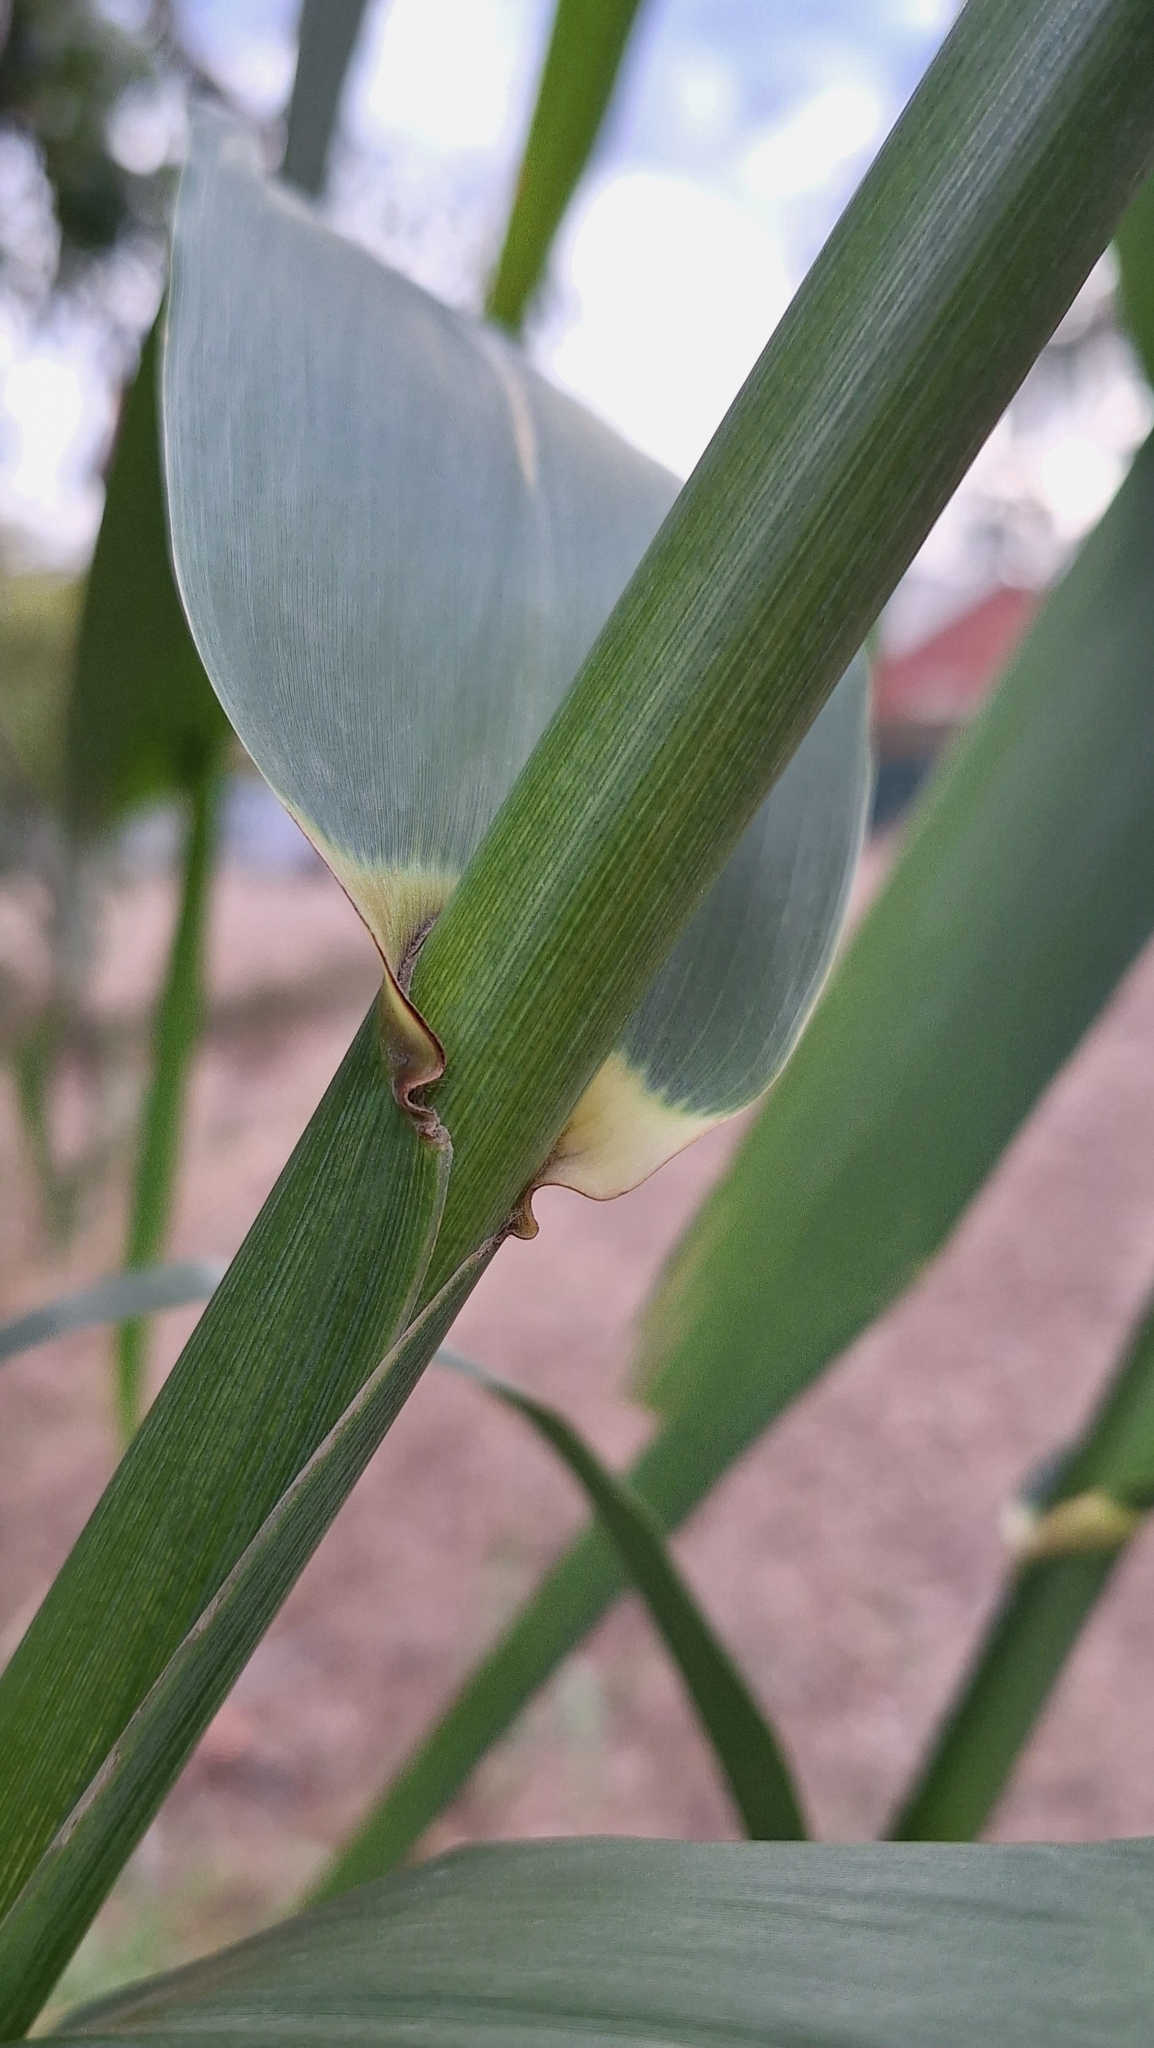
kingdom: Plantae
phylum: Tracheophyta
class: Liliopsida
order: Poales
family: Poaceae
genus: Arundo
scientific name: Arundo donax
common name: Giant reed
